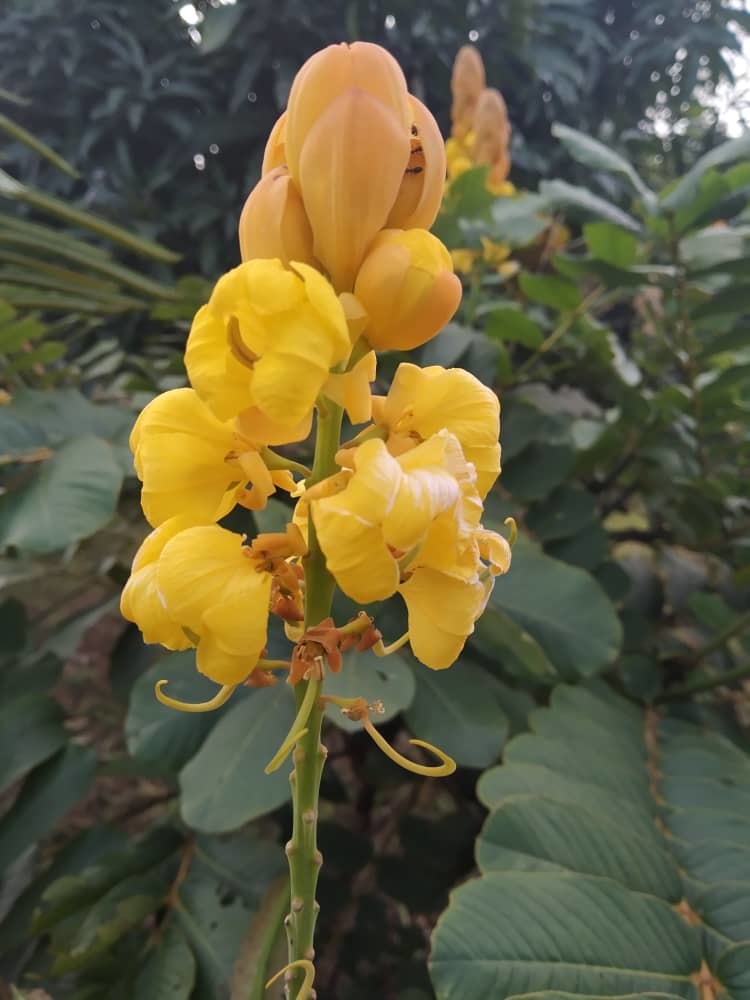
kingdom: Plantae
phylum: Tracheophyta
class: Magnoliopsida
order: Fabales
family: Fabaceae
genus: Senna
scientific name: Senna alata
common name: Emperor's candlesticks
